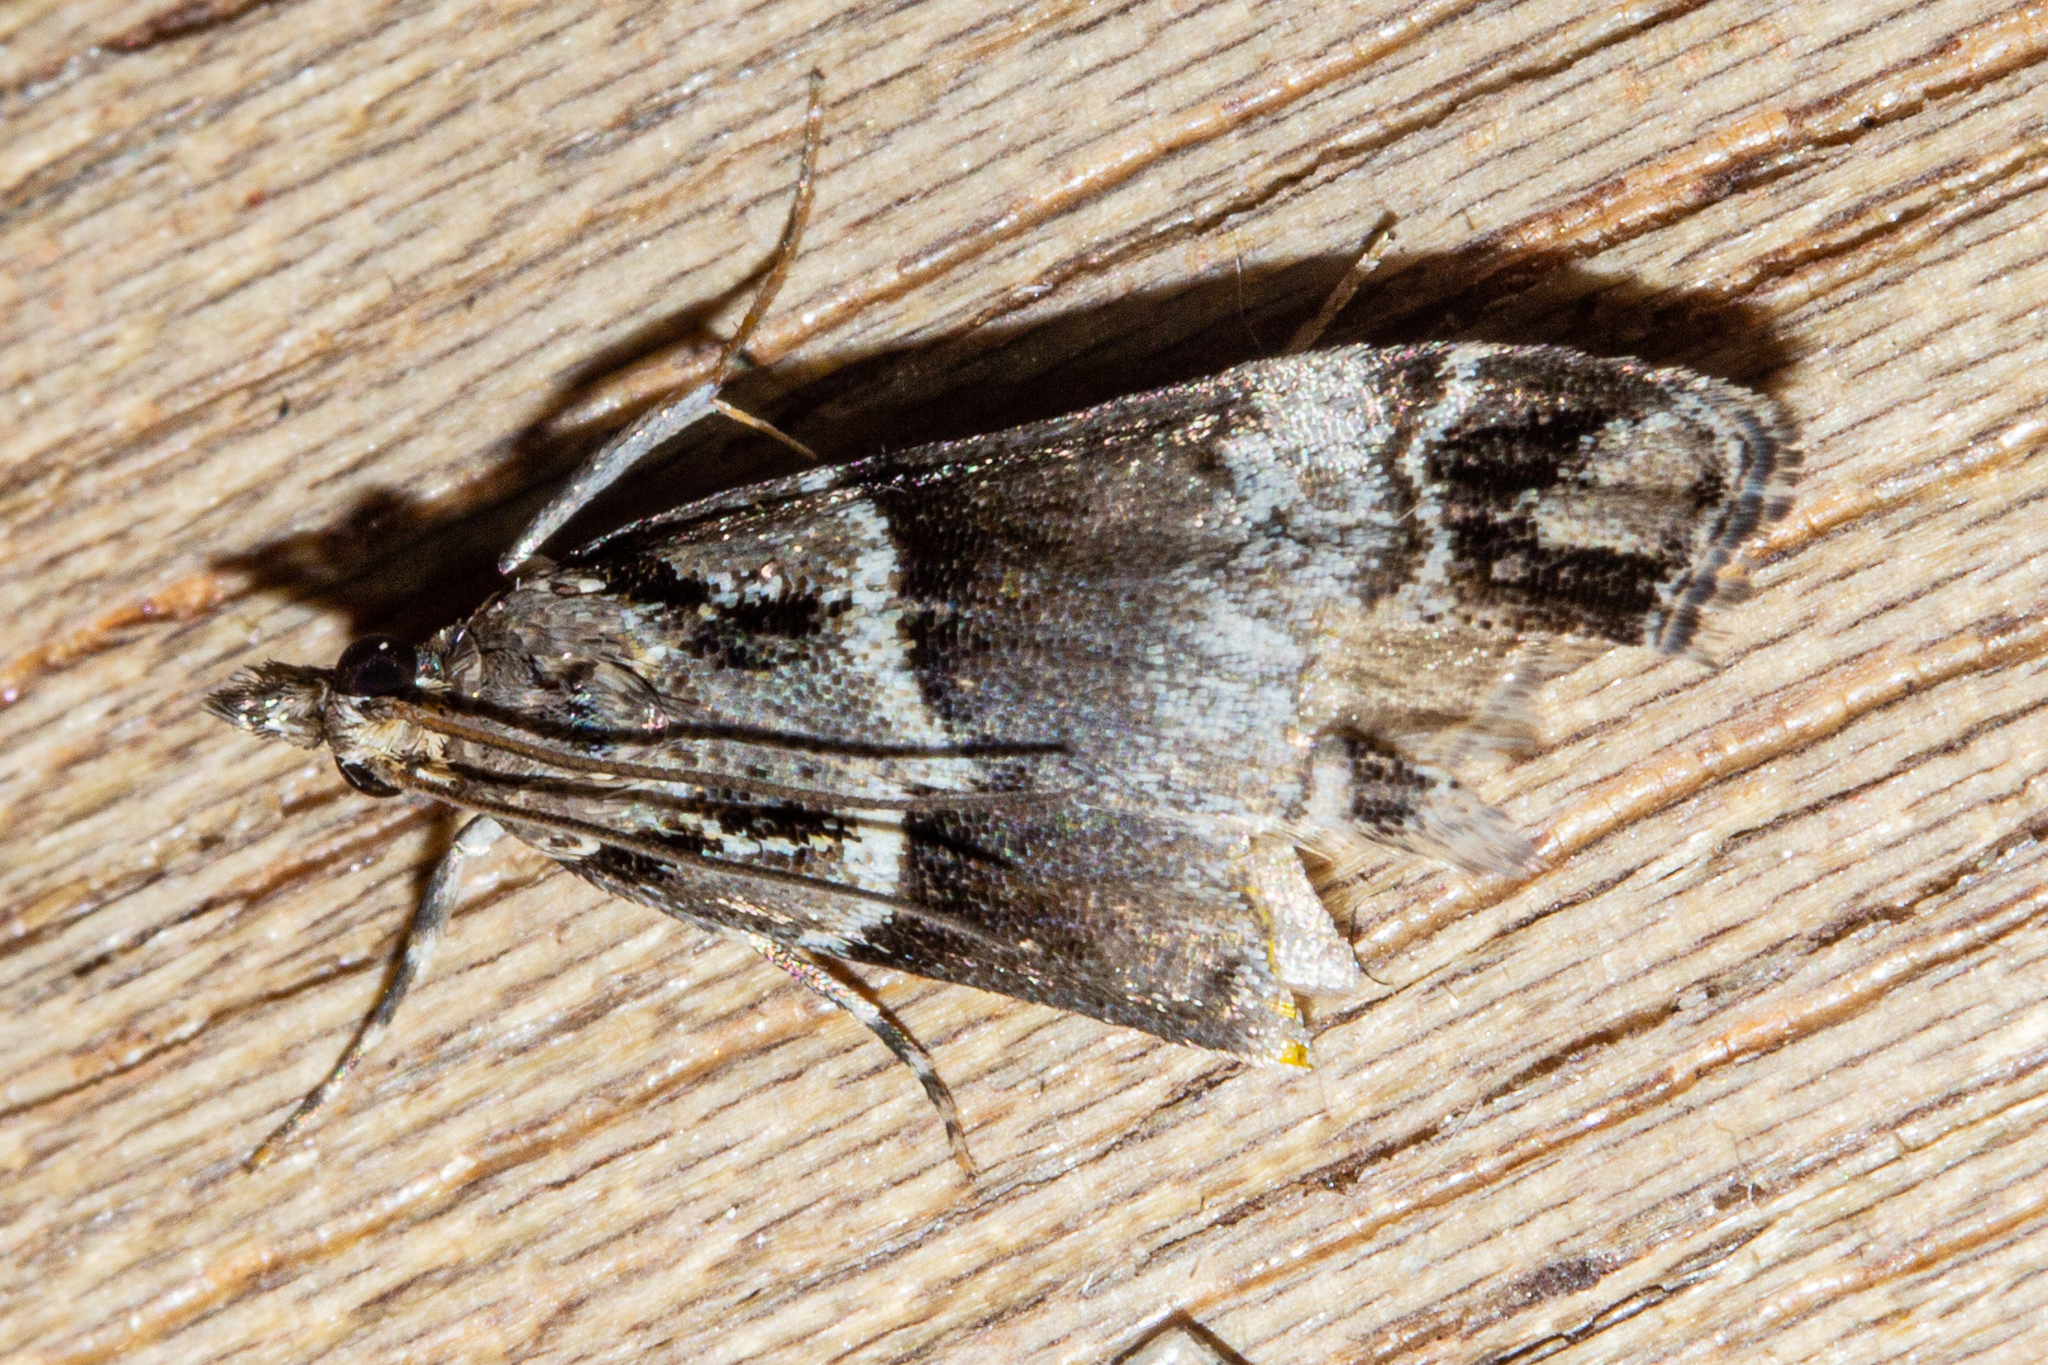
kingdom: Animalia
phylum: Arthropoda
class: Insecta
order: Lepidoptera
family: Crambidae
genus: Eudonia
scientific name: Eudonia periphanes
